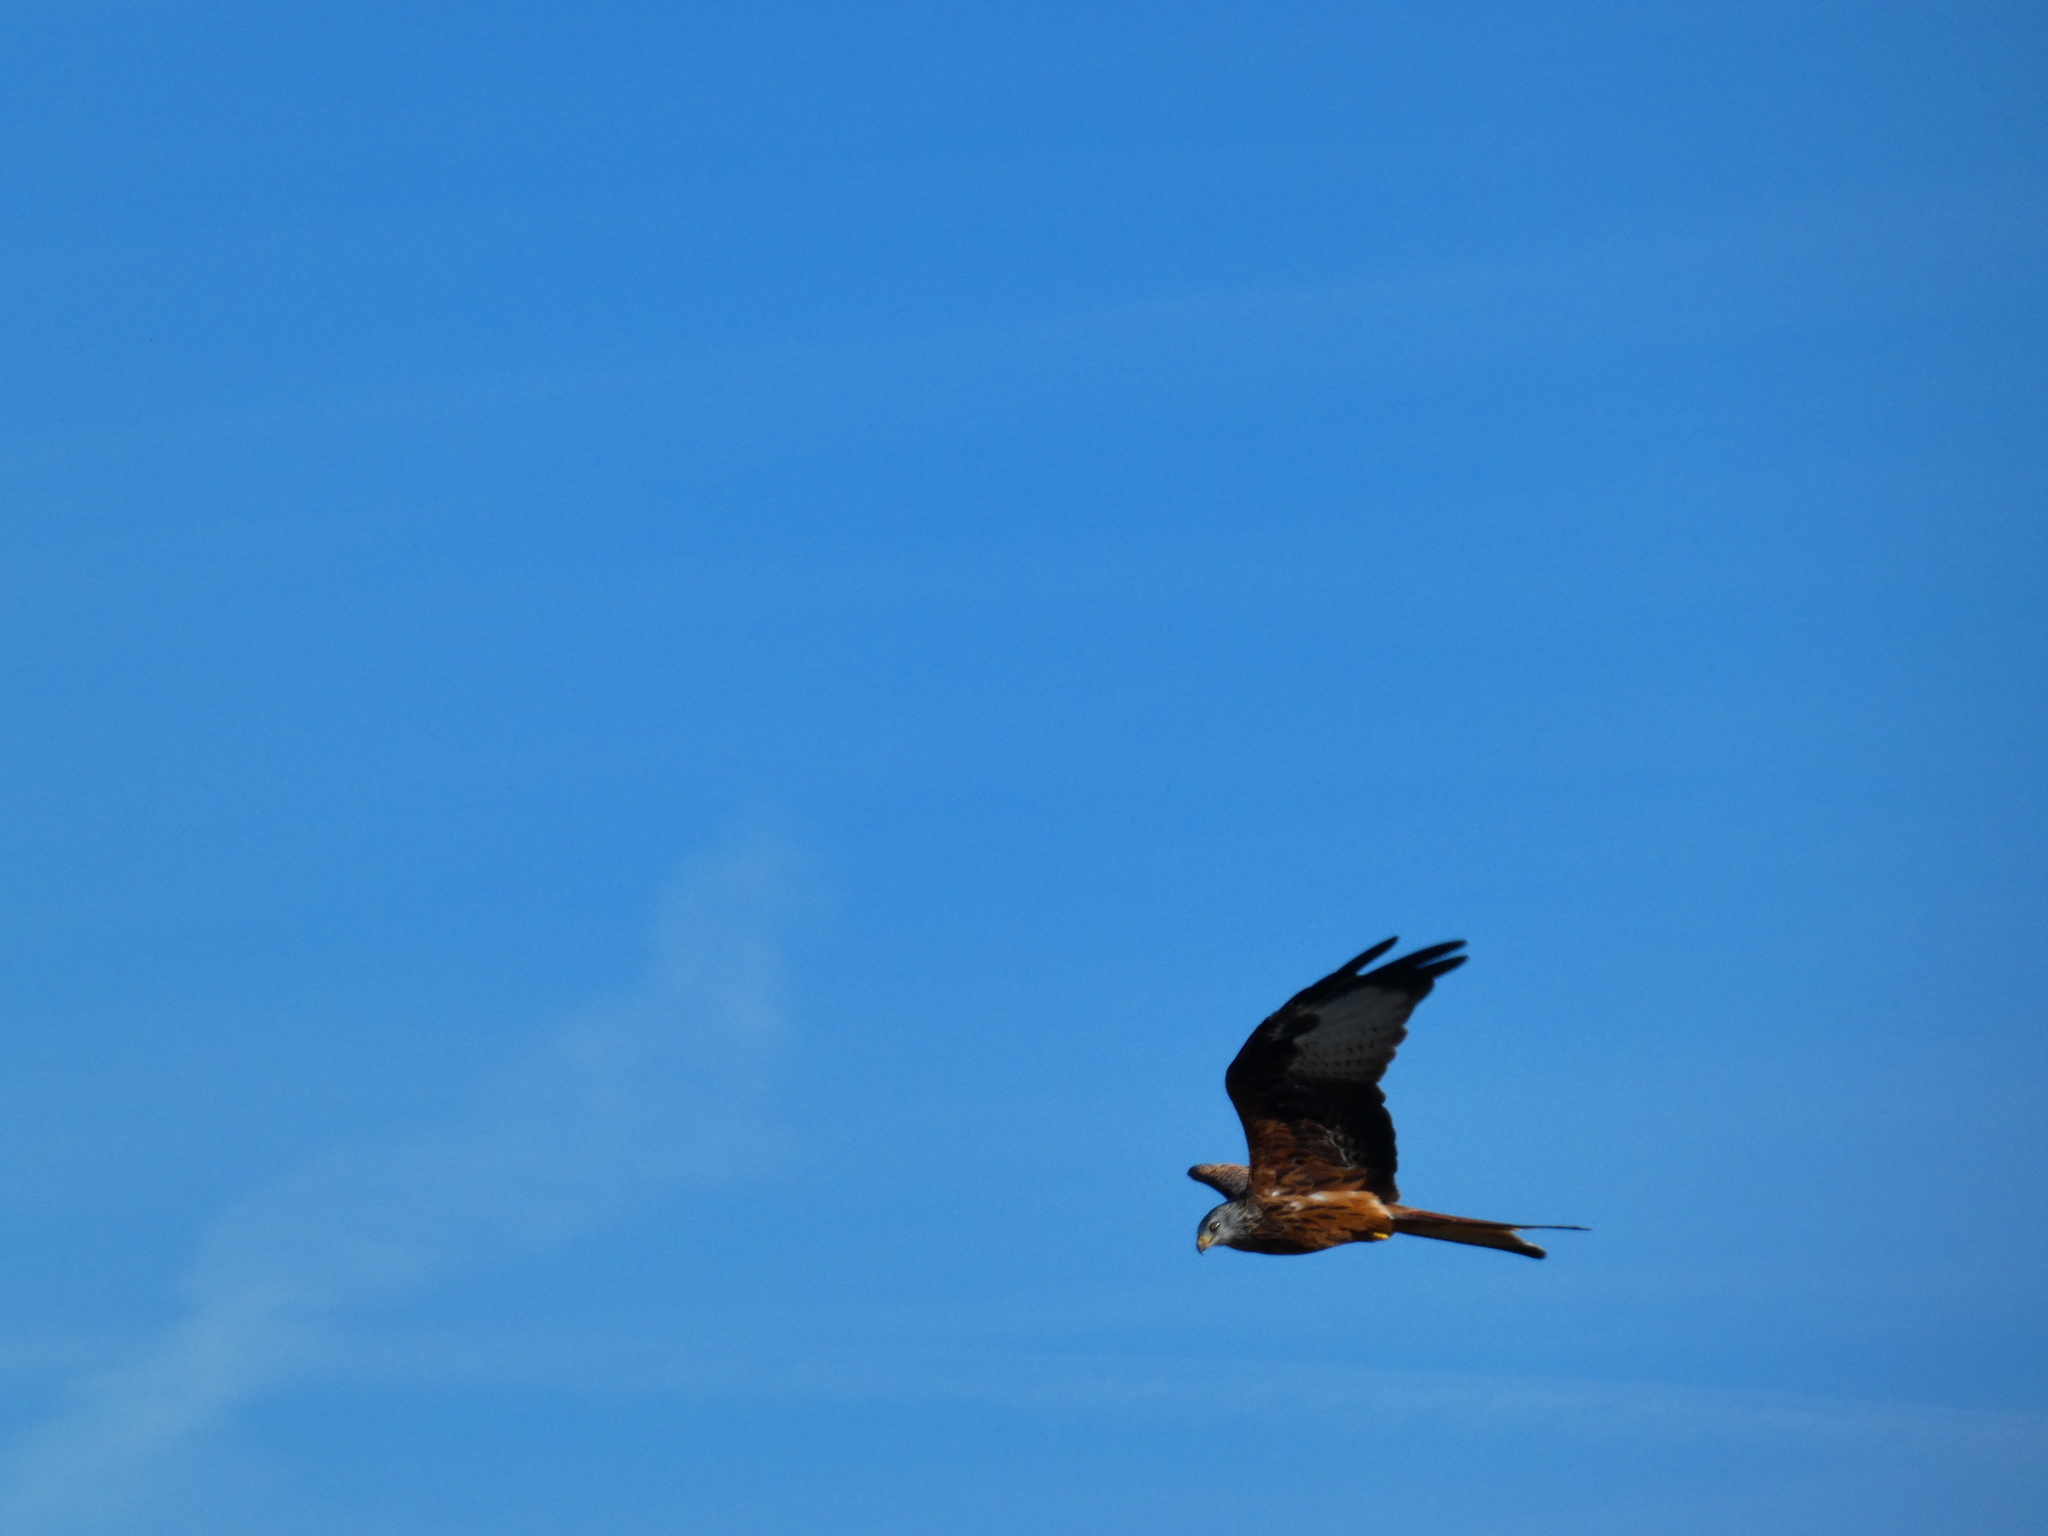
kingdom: Animalia
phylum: Chordata
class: Aves
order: Accipitriformes
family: Accipitridae
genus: Milvus
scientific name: Milvus milvus
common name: Red kite
